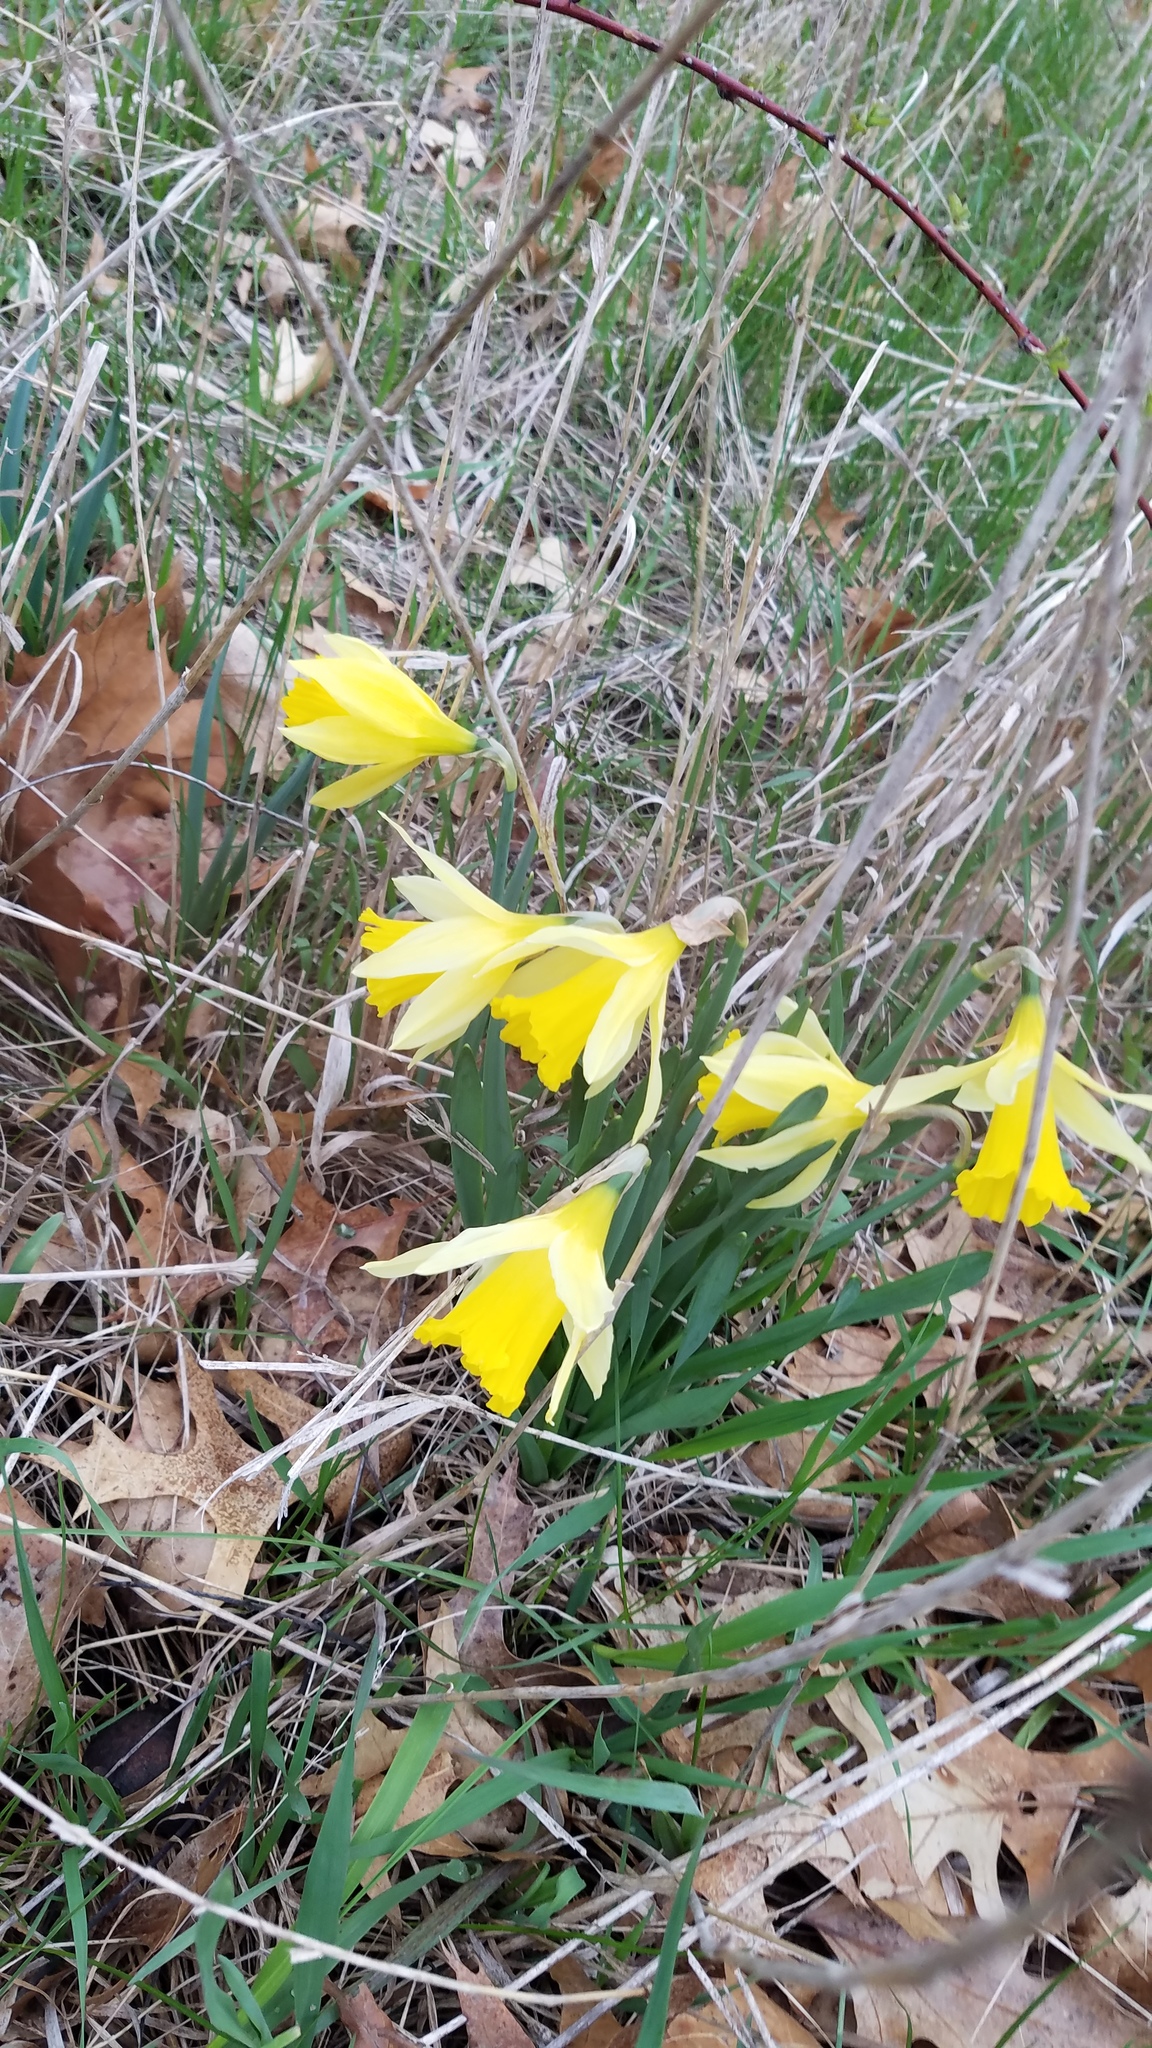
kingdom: Plantae
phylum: Tracheophyta
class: Liliopsida
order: Asparagales
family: Amaryllidaceae
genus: Narcissus
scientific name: Narcissus pseudonarcissus
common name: Daffodil
